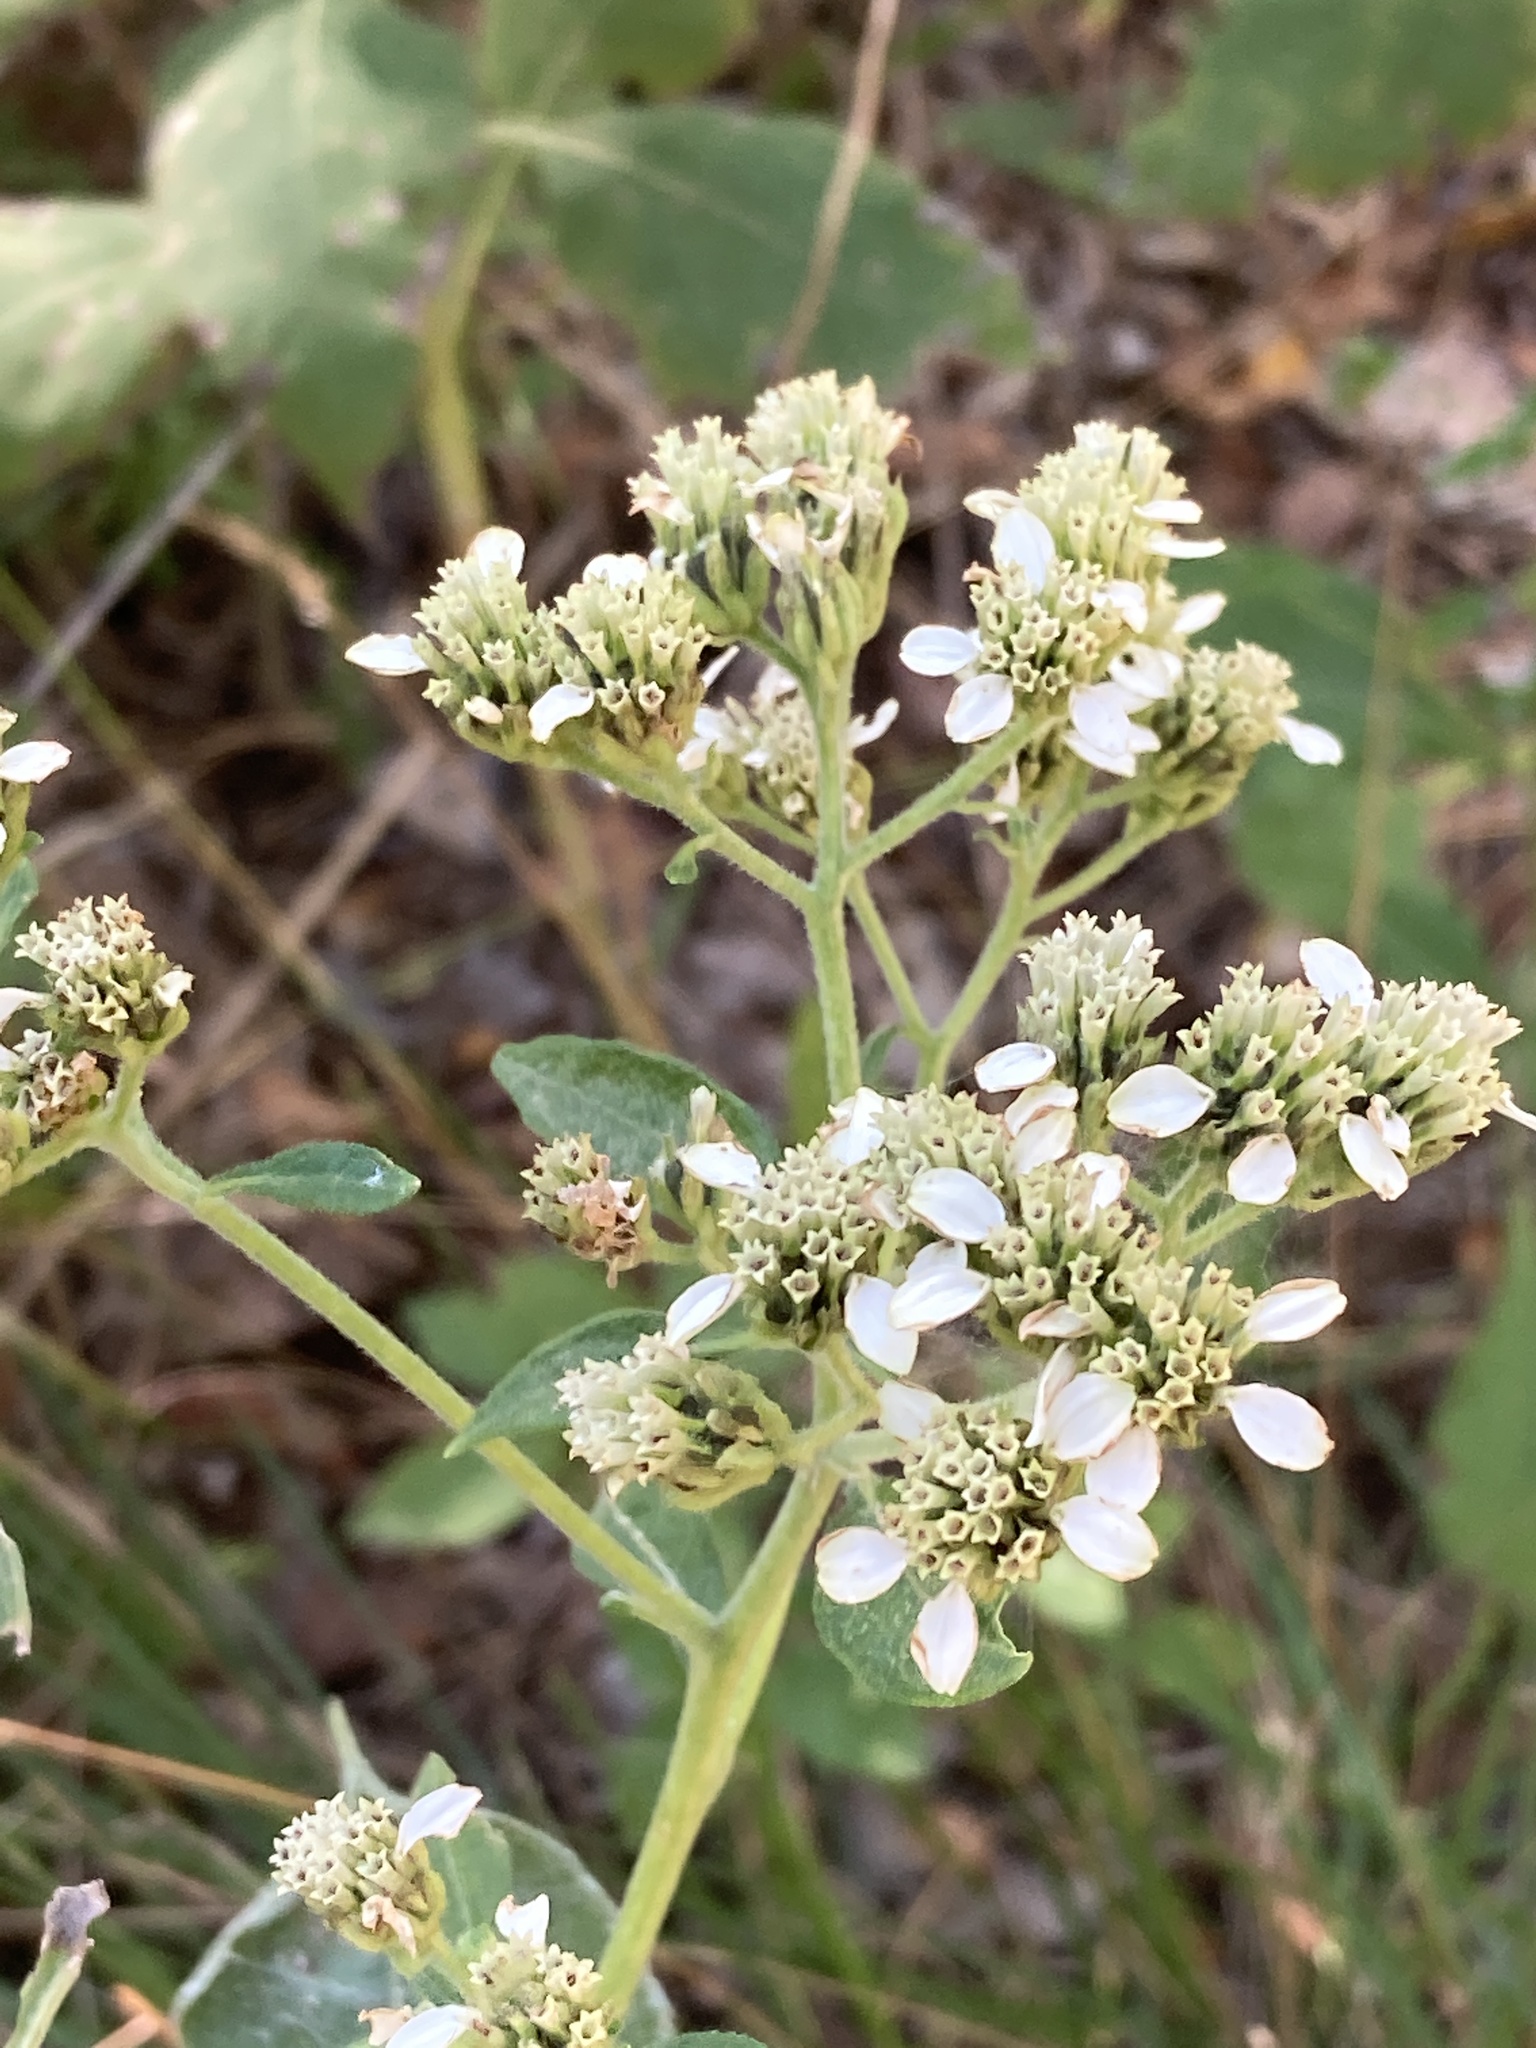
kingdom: Plantae
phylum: Tracheophyta
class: Magnoliopsida
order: Asterales
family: Asteraceae
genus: Verbesina
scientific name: Verbesina virginica
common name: Frostweed
